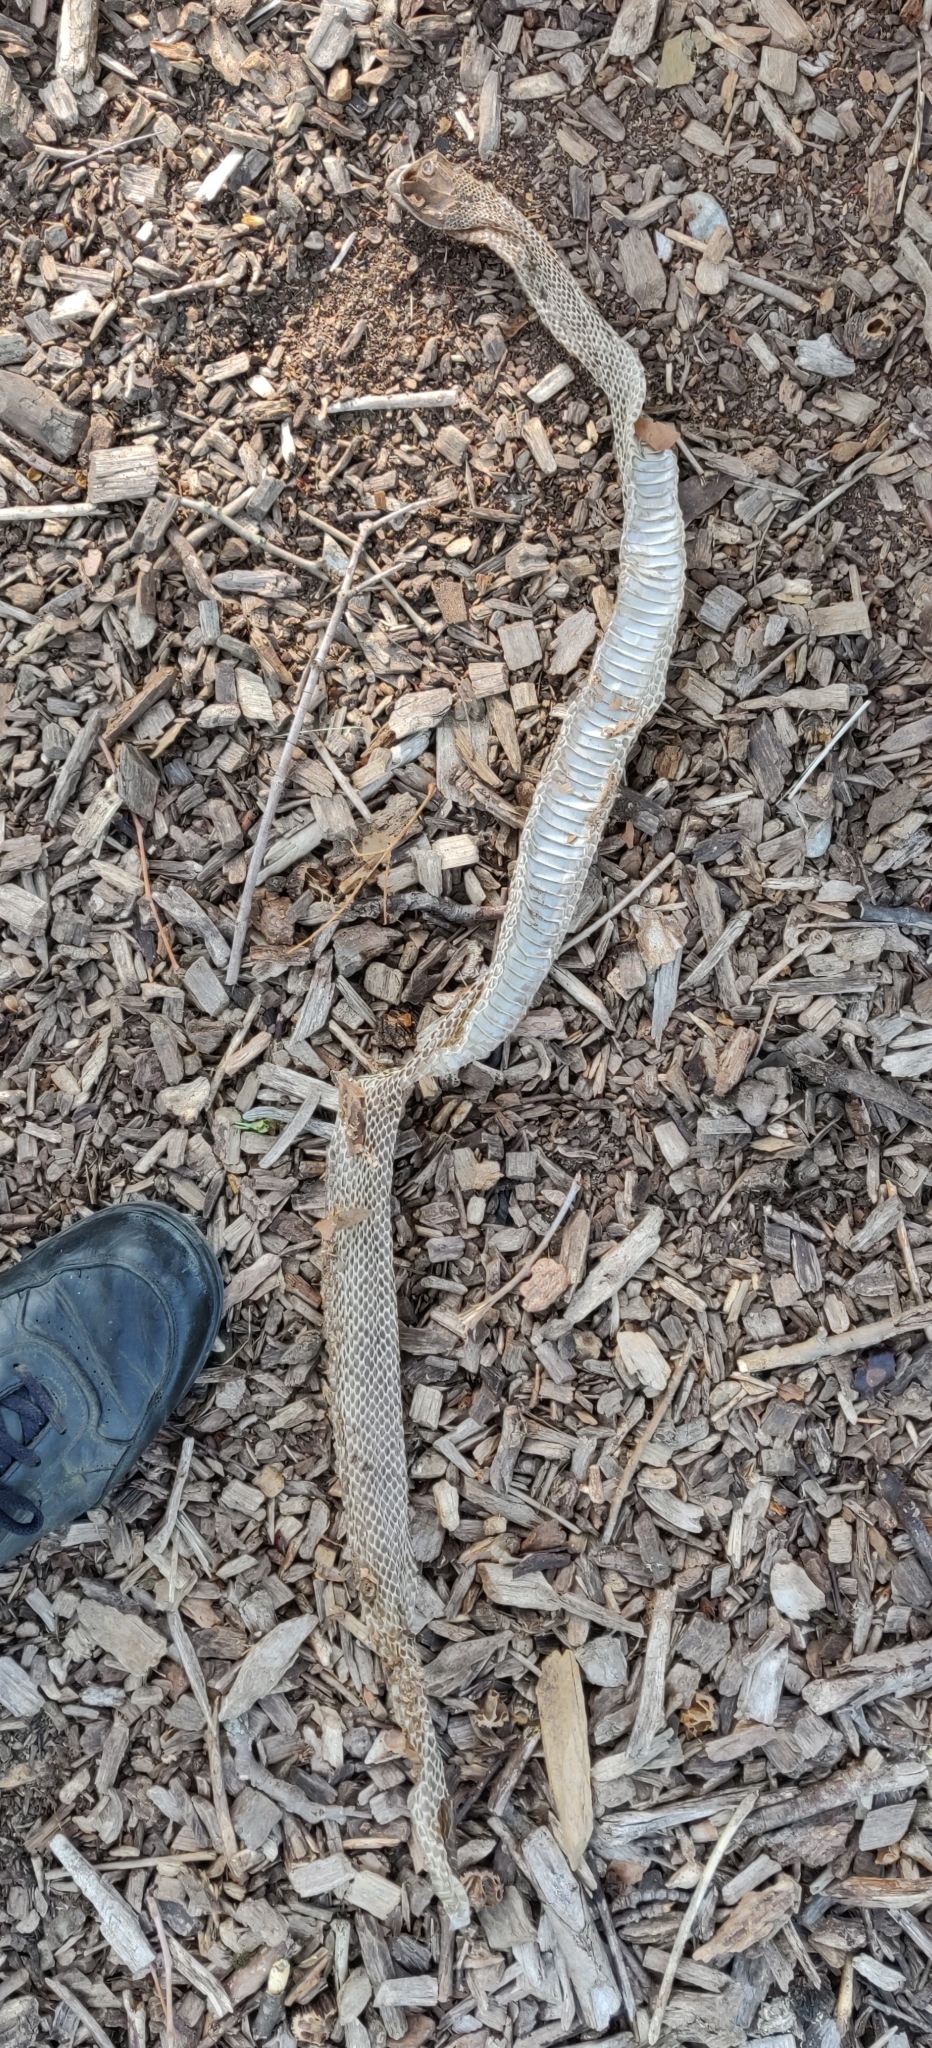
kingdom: Animalia
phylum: Chordata
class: Squamata
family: Colubridae
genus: Pantherophis
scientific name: Pantherophis spiloides
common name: Gray rat snake
